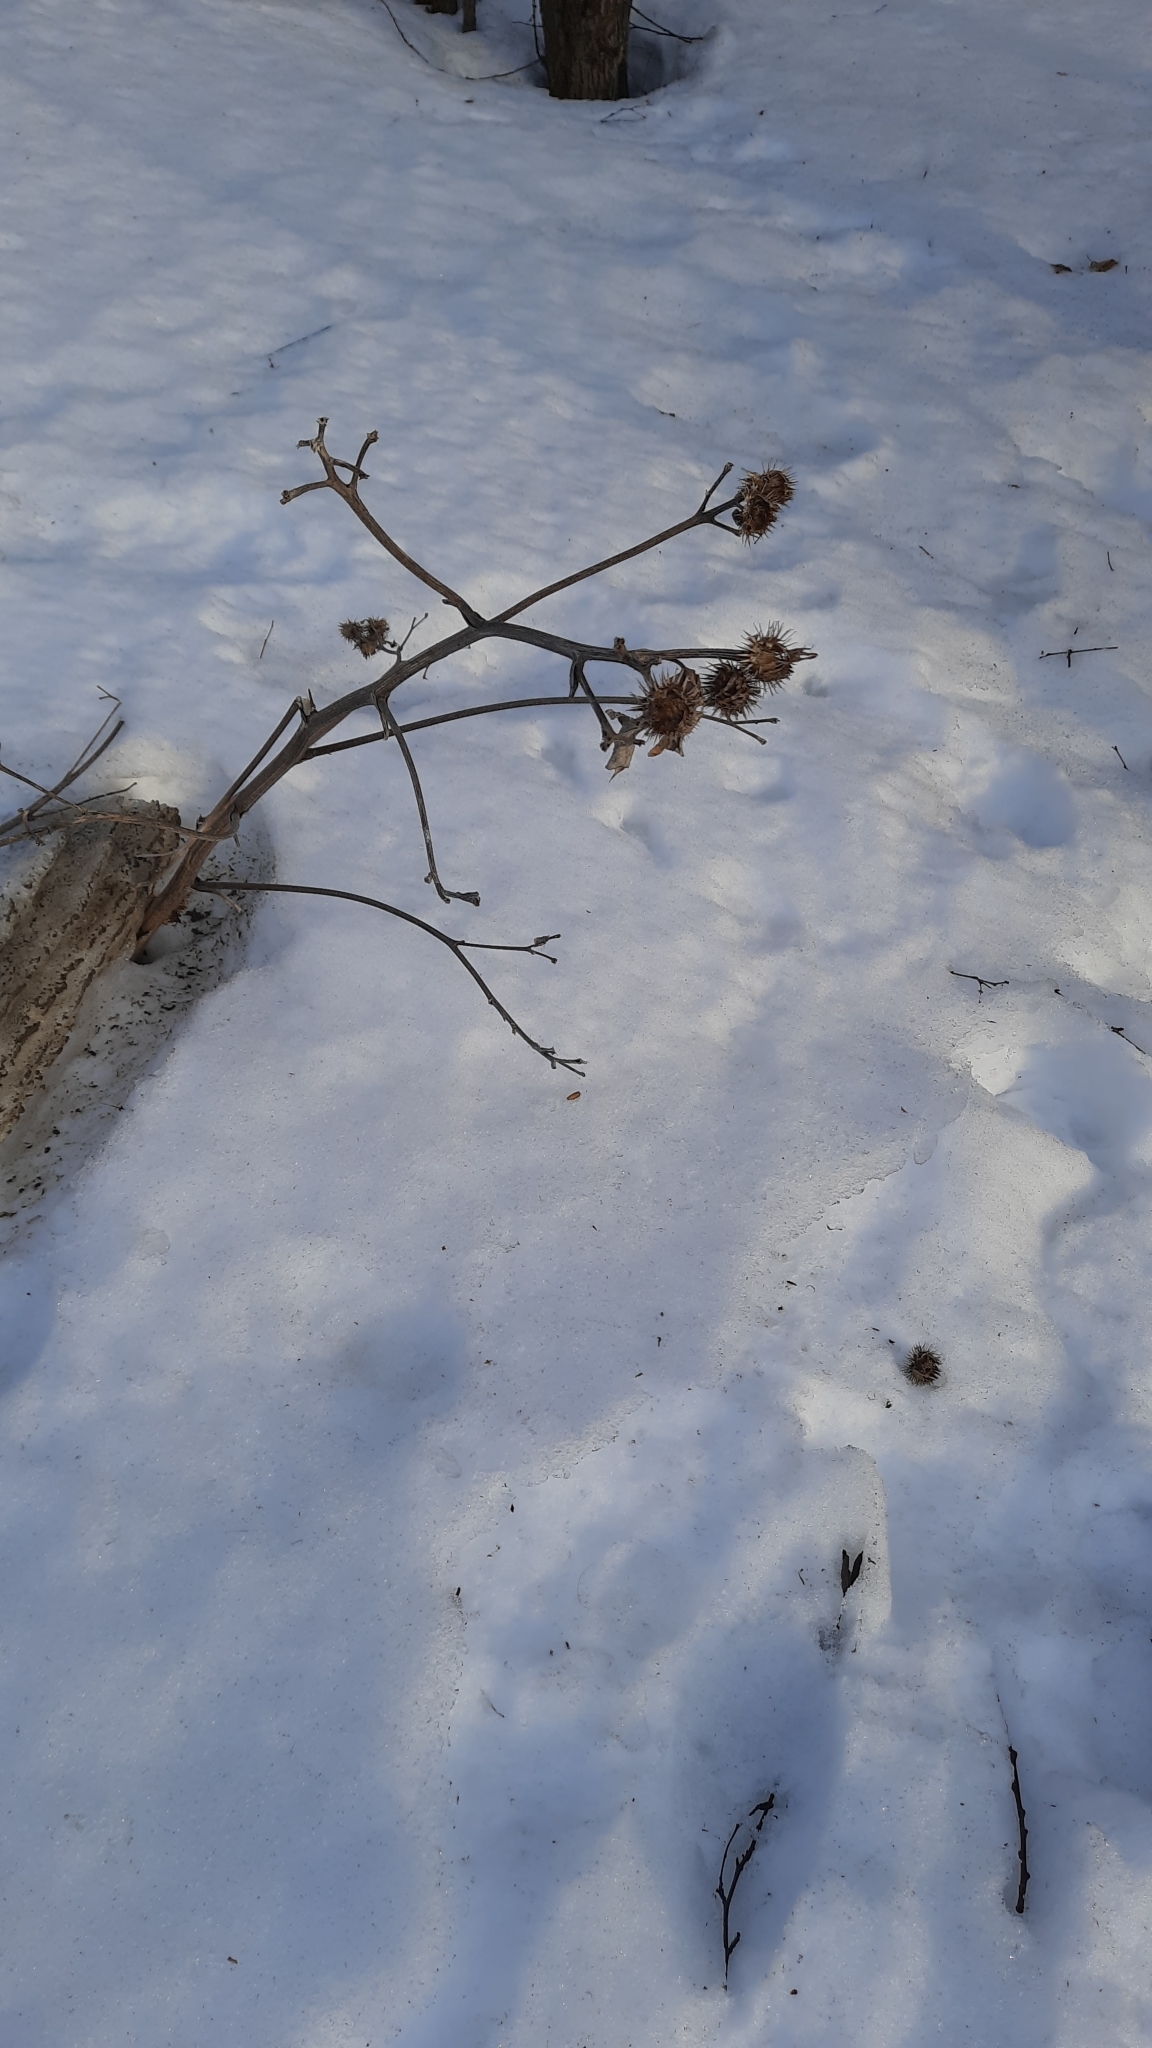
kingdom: Plantae
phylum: Tracheophyta
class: Magnoliopsida
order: Asterales
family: Asteraceae
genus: Arctium
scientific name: Arctium tomentosum
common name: Woolly burdock
